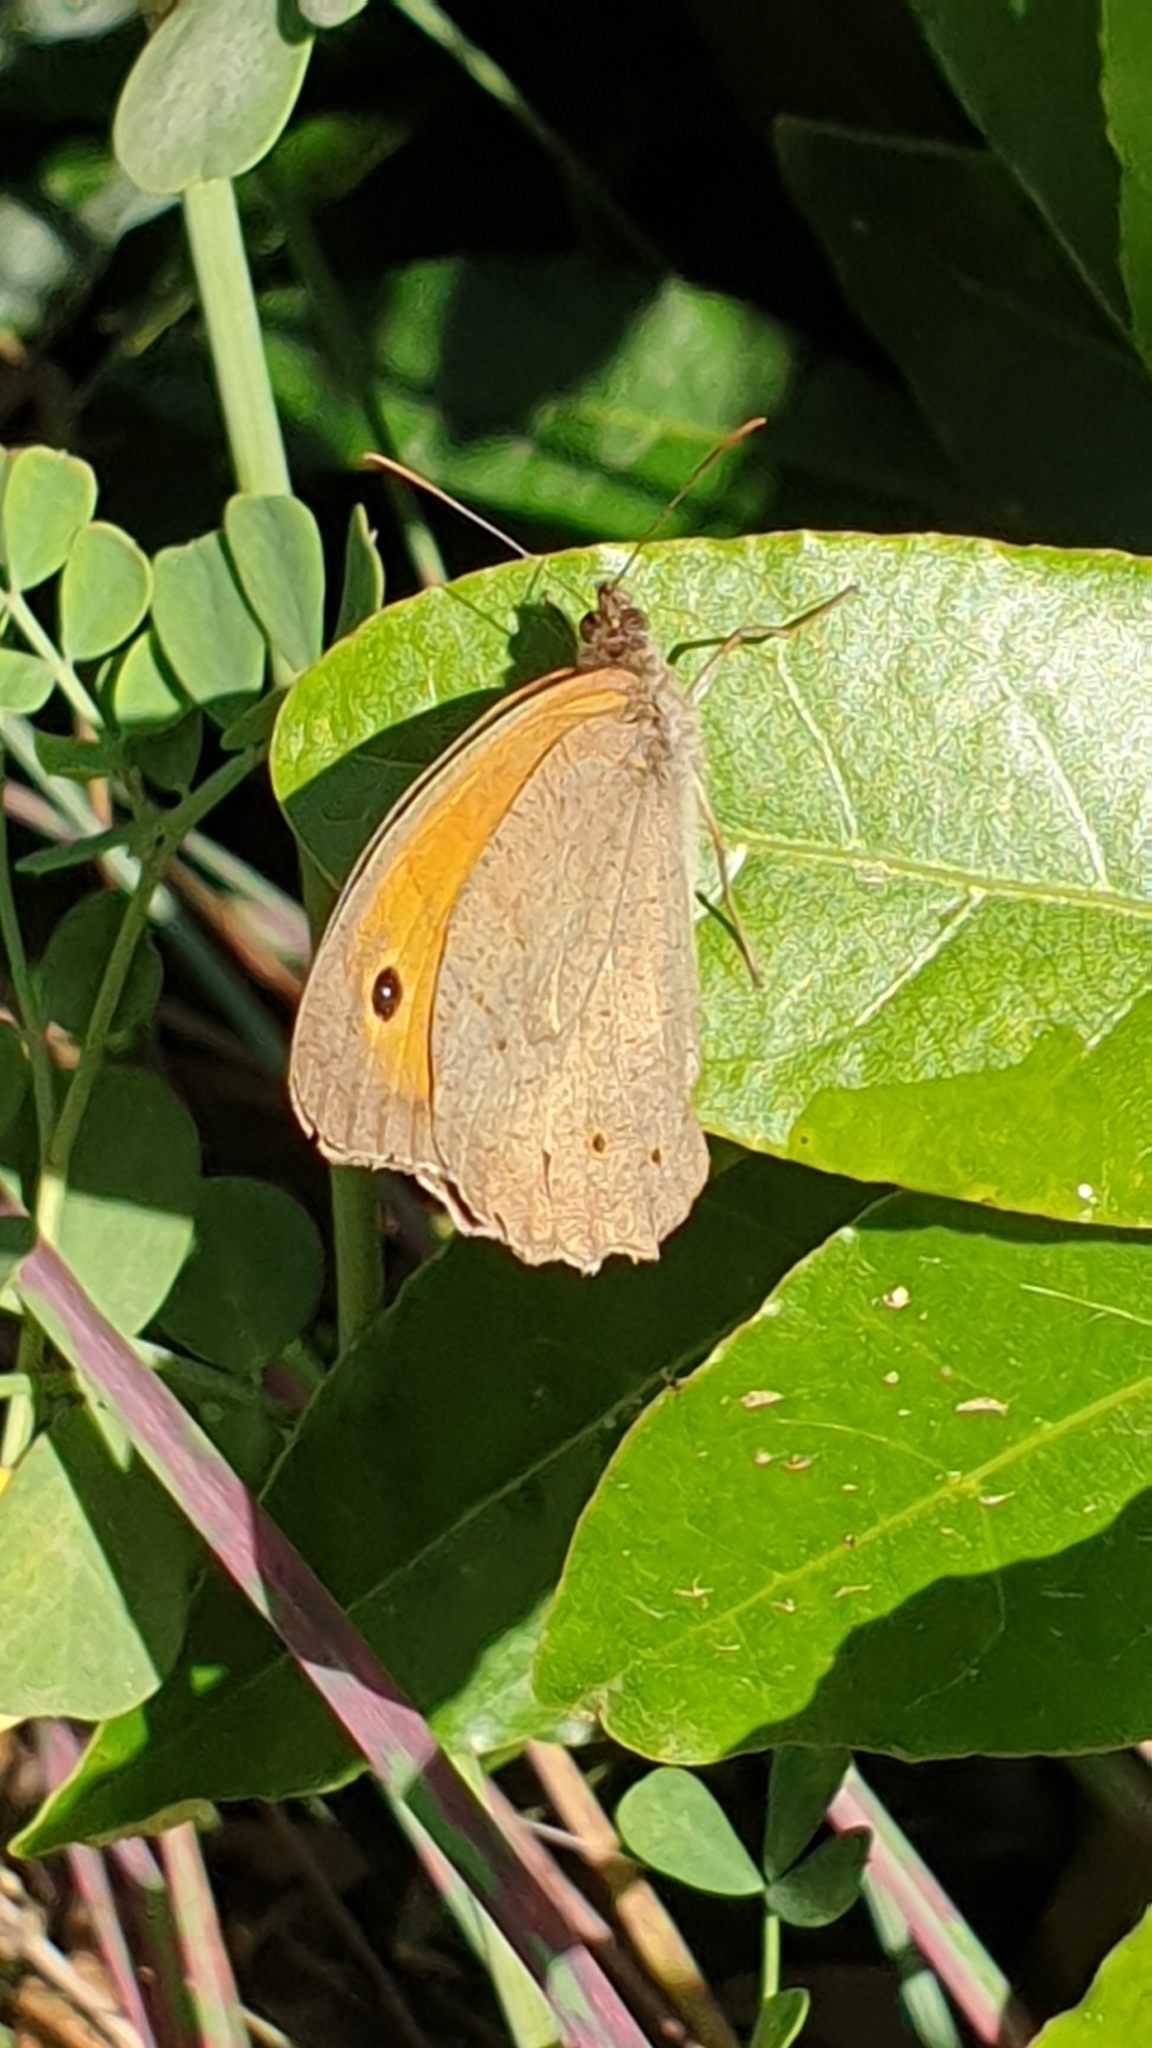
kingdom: Animalia
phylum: Arthropoda
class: Insecta
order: Lepidoptera
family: Nymphalidae
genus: Maniola
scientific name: Maniola jurtina
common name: Meadow brown
